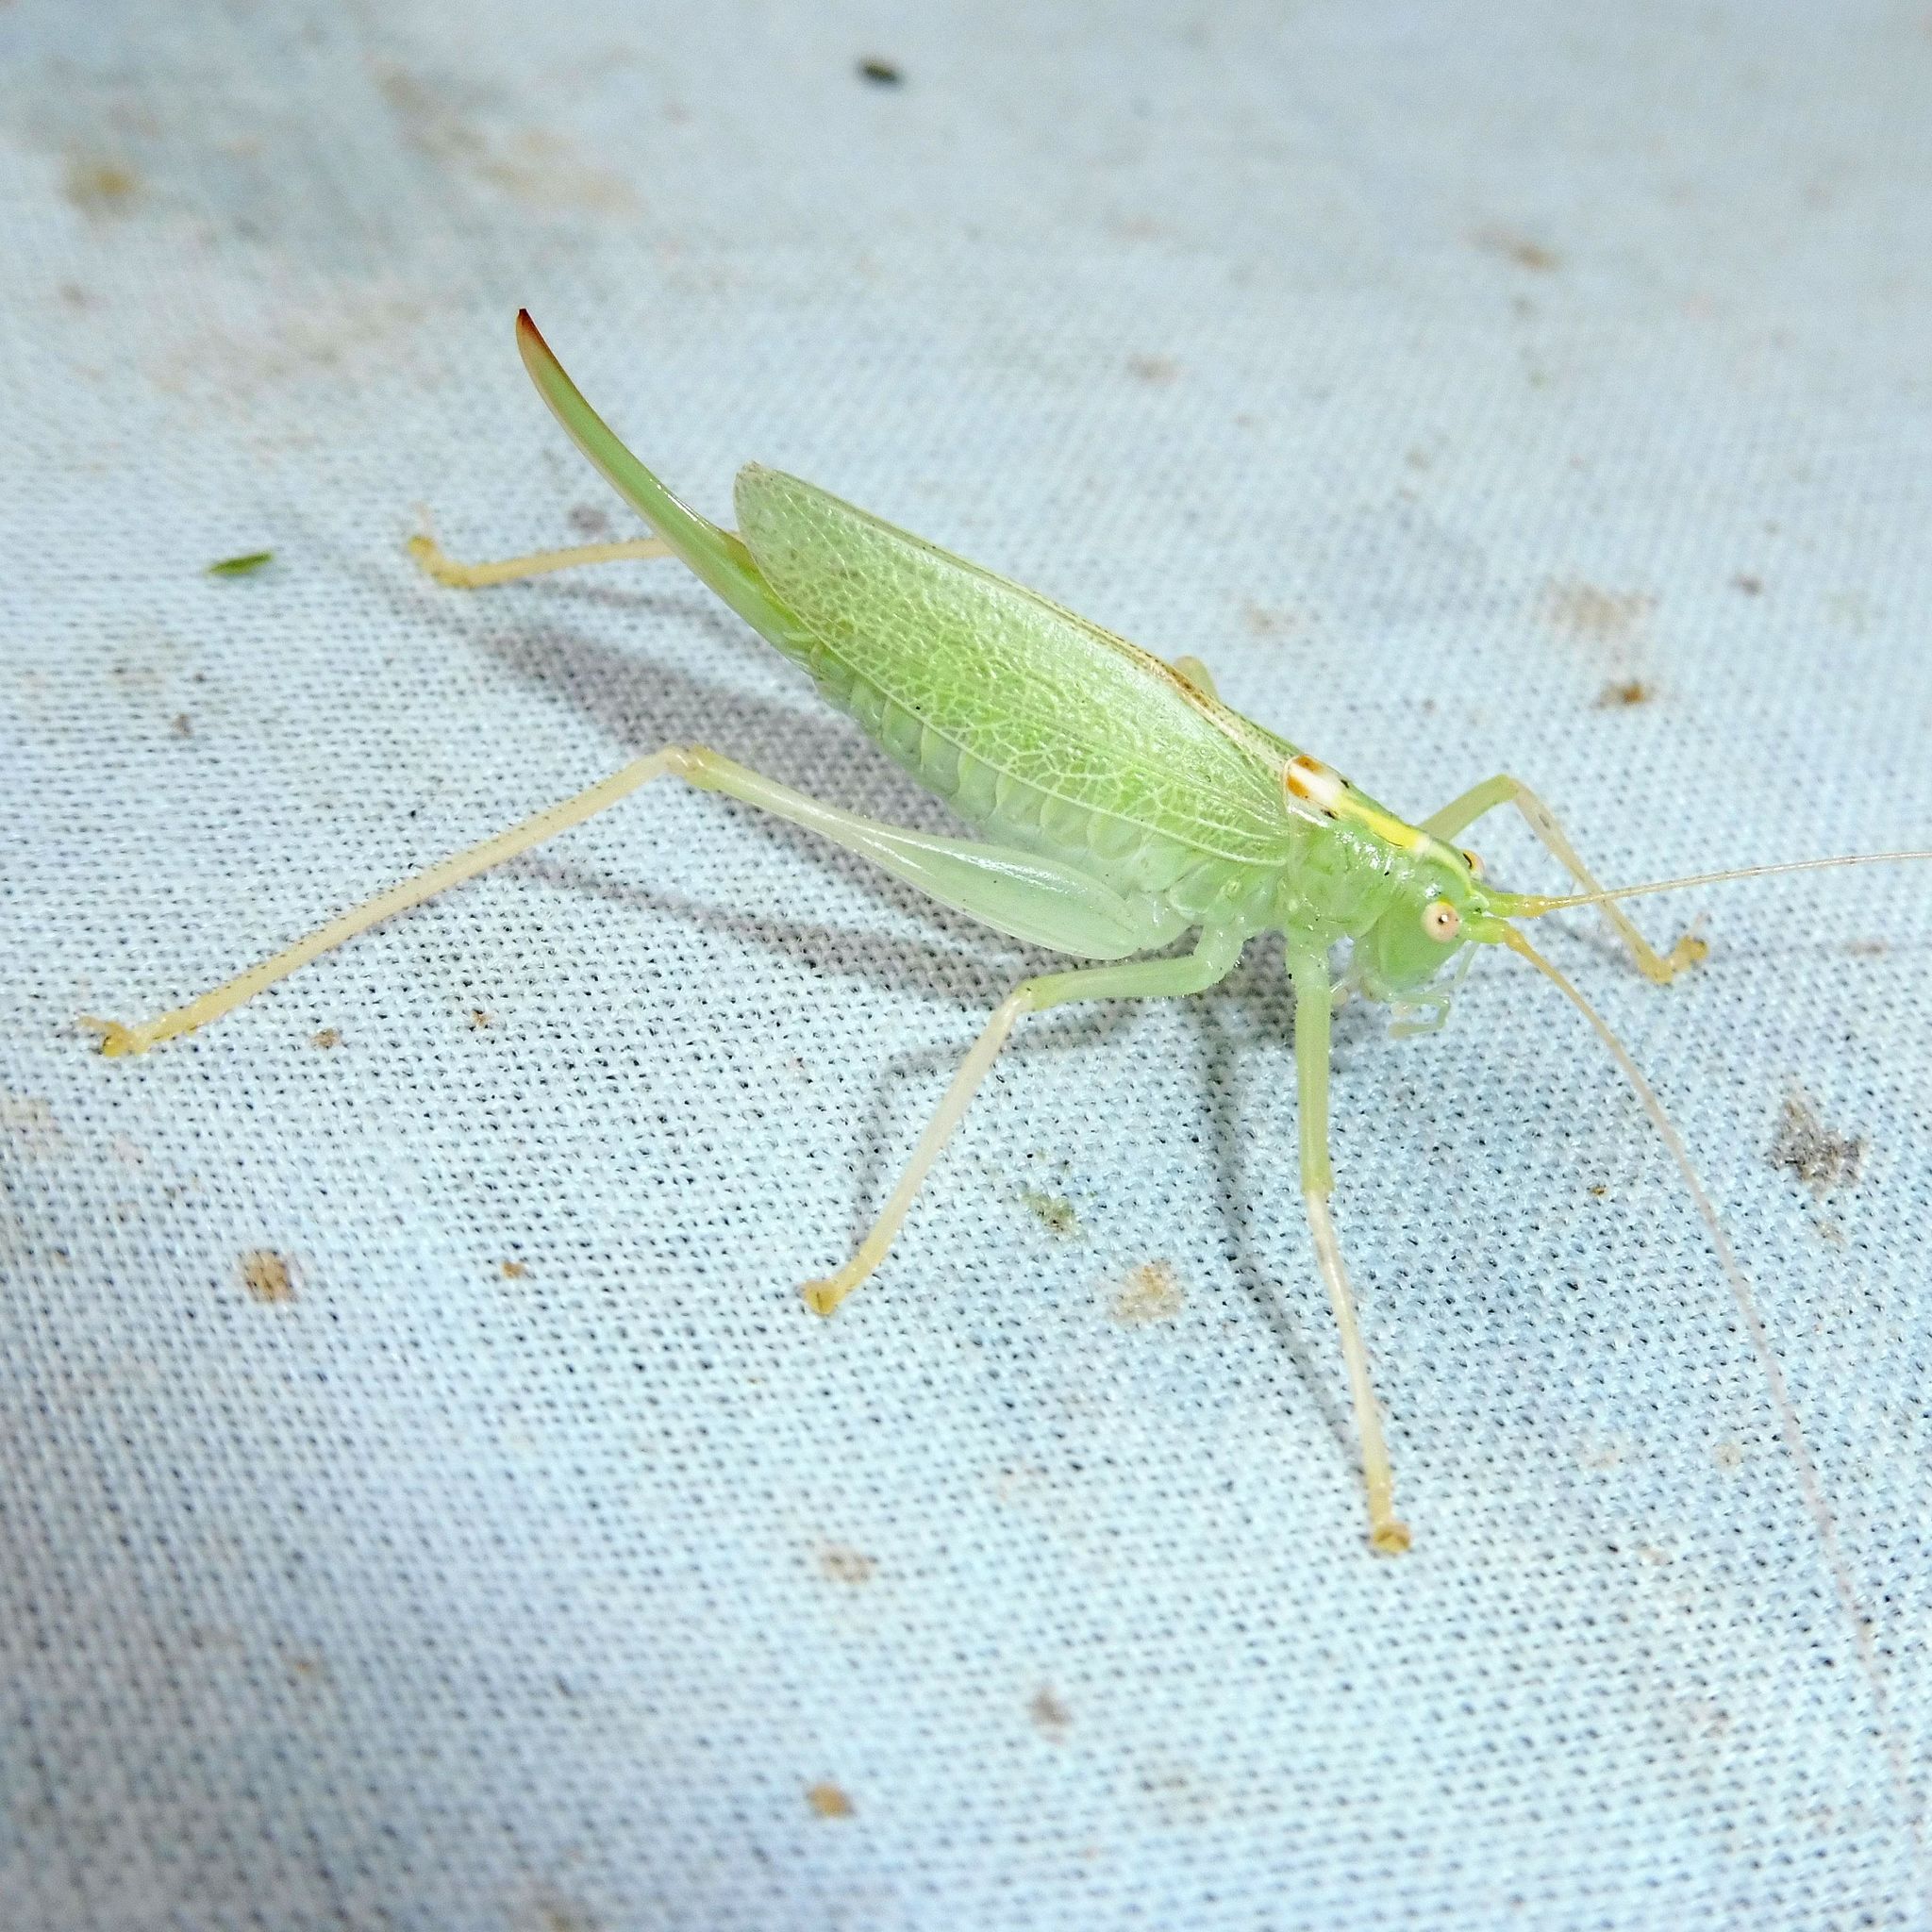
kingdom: Animalia
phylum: Arthropoda
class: Insecta
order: Orthoptera
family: Tettigoniidae
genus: Meconema
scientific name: Meconema thalassinum
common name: Oak bush-cricket
